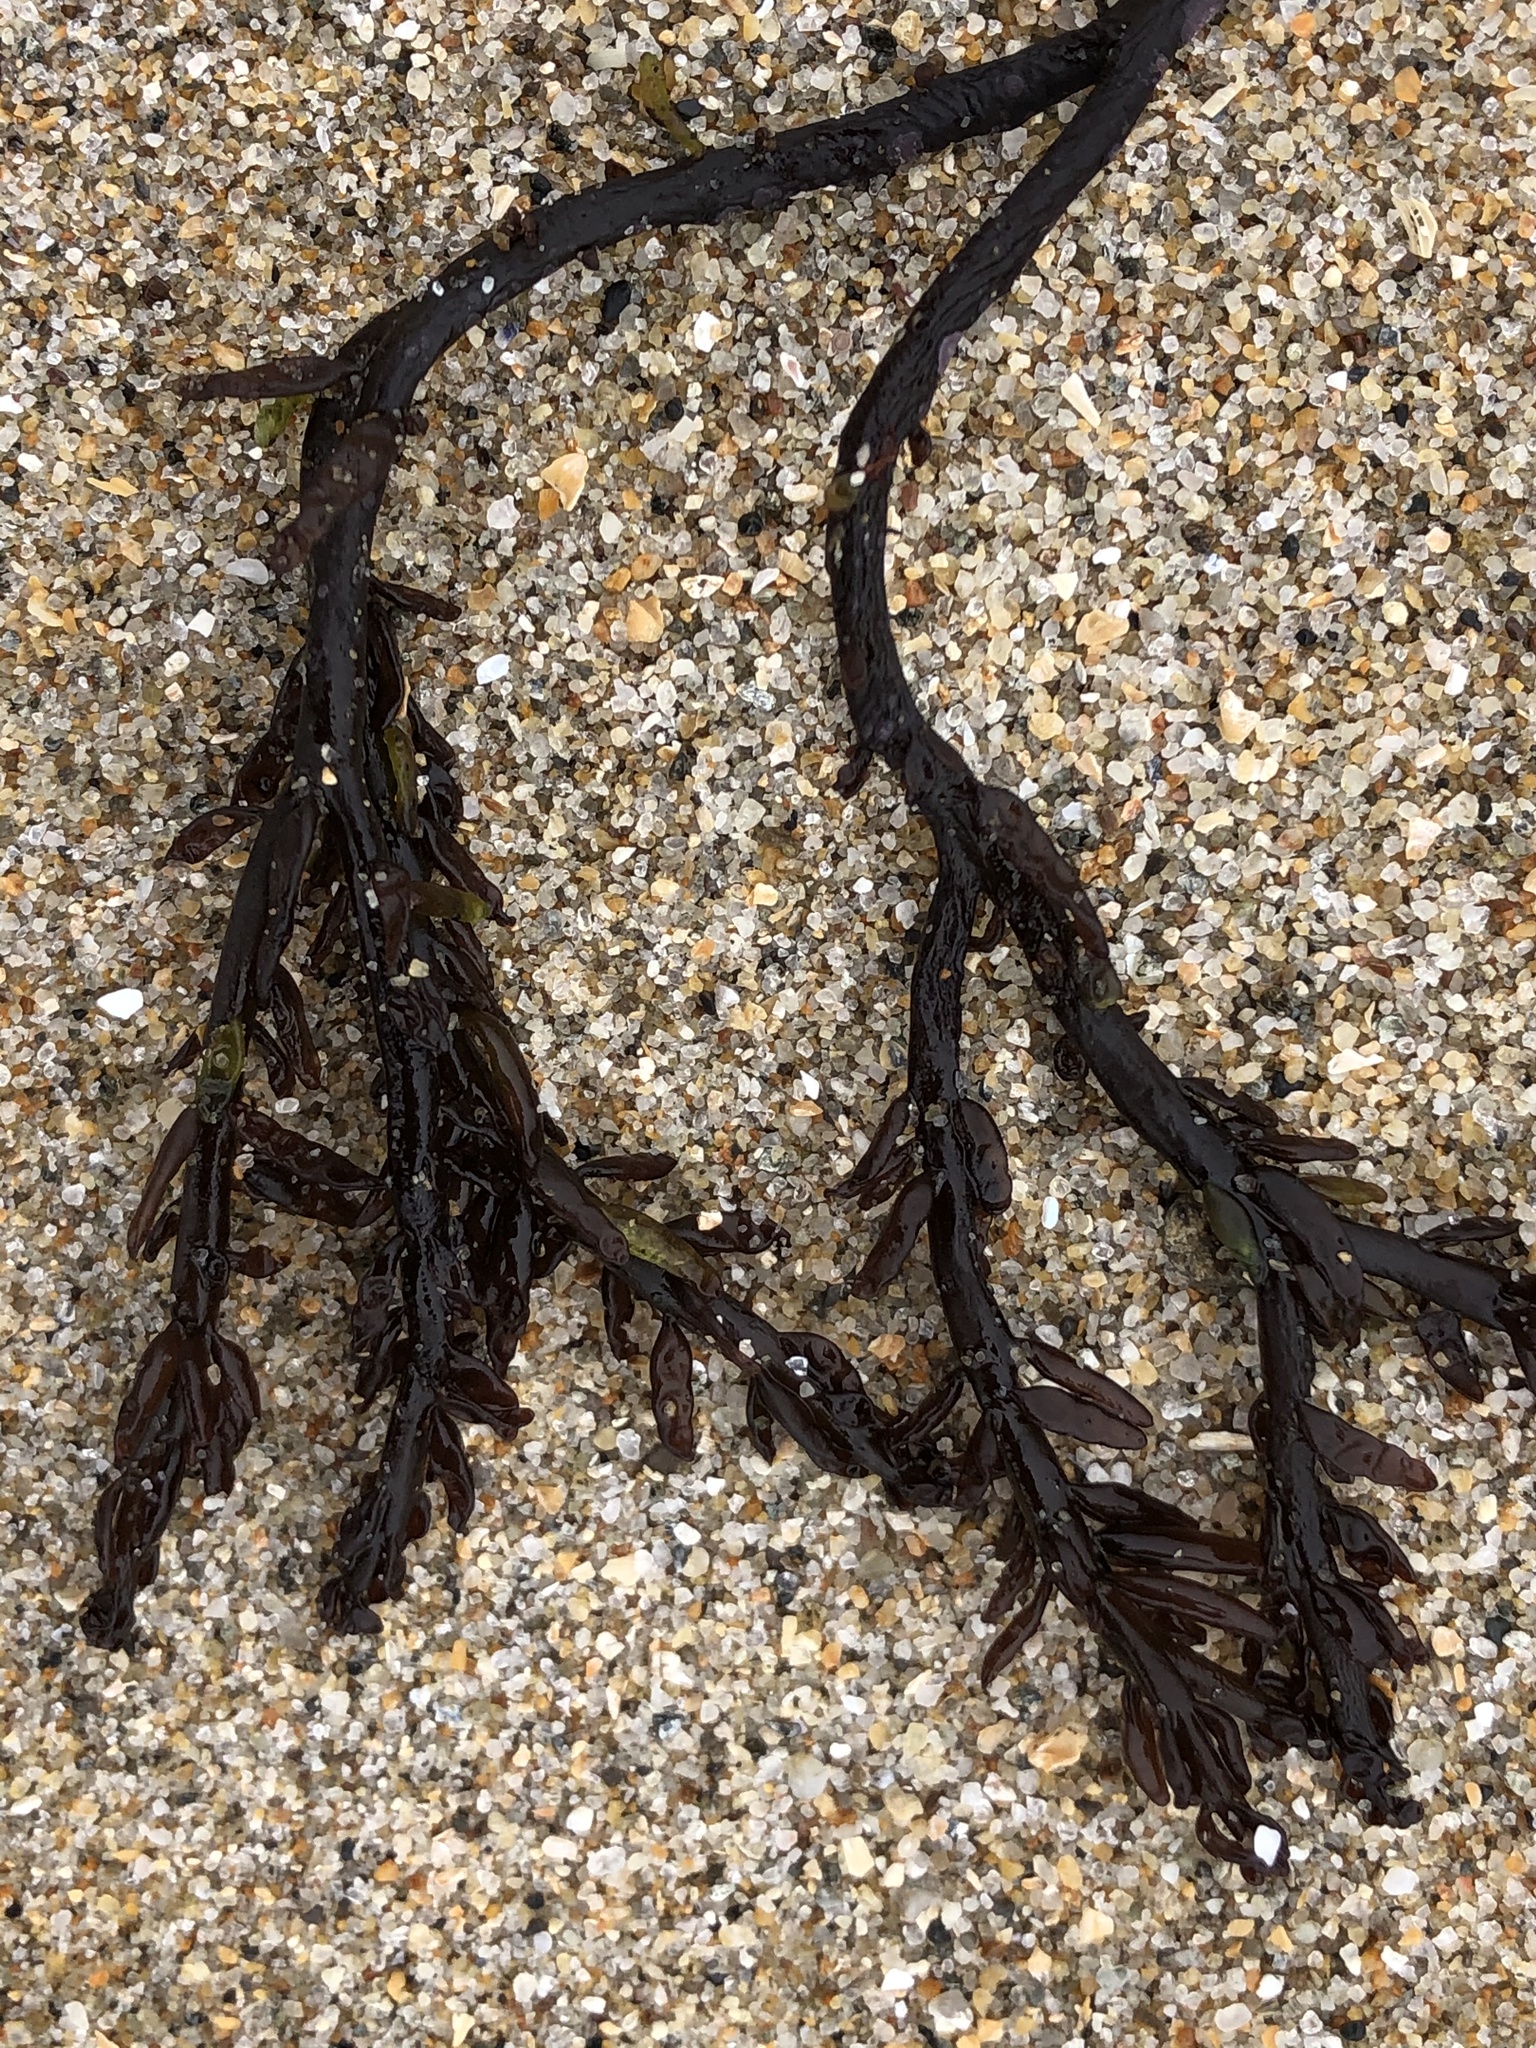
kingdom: Plantae
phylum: Rhodophyta
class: Florideophyceae
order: Rhodymeniales
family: Champiaceae
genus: Neogastroclonium
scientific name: Neogastroclonium subarticulatum
